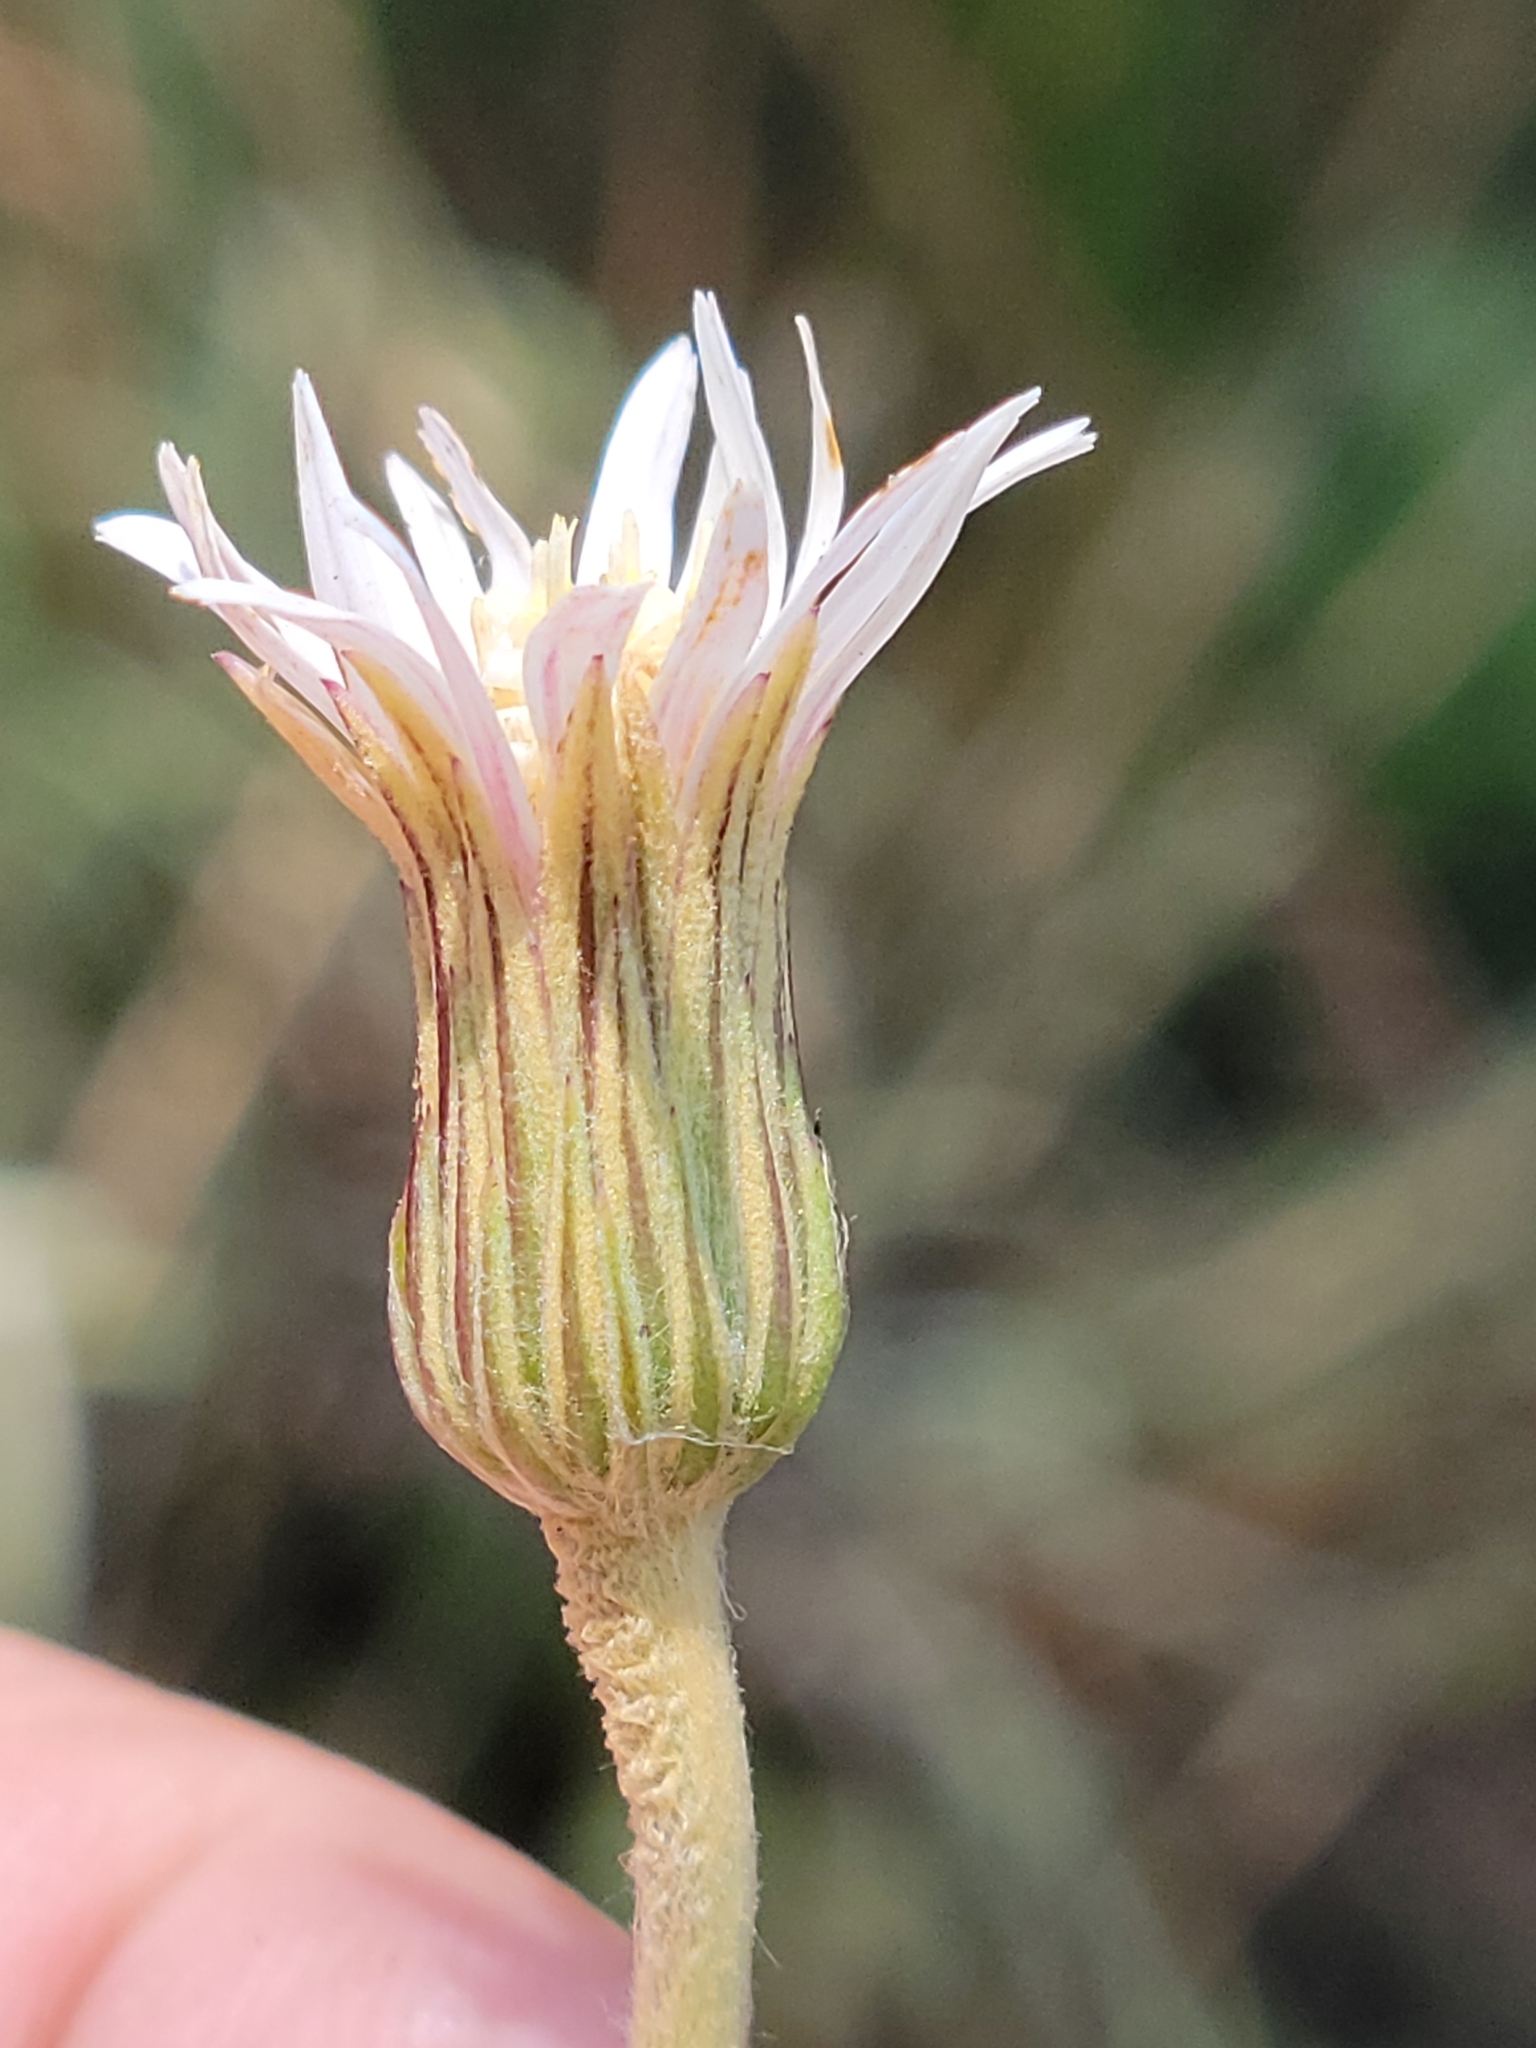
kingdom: Plantae
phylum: Tracheophyta
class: Magnoliopsida
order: Asterales
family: Asteraceae
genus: Chaptalia
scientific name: Chaptalia tomentosa
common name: Woolly sunbonnet
